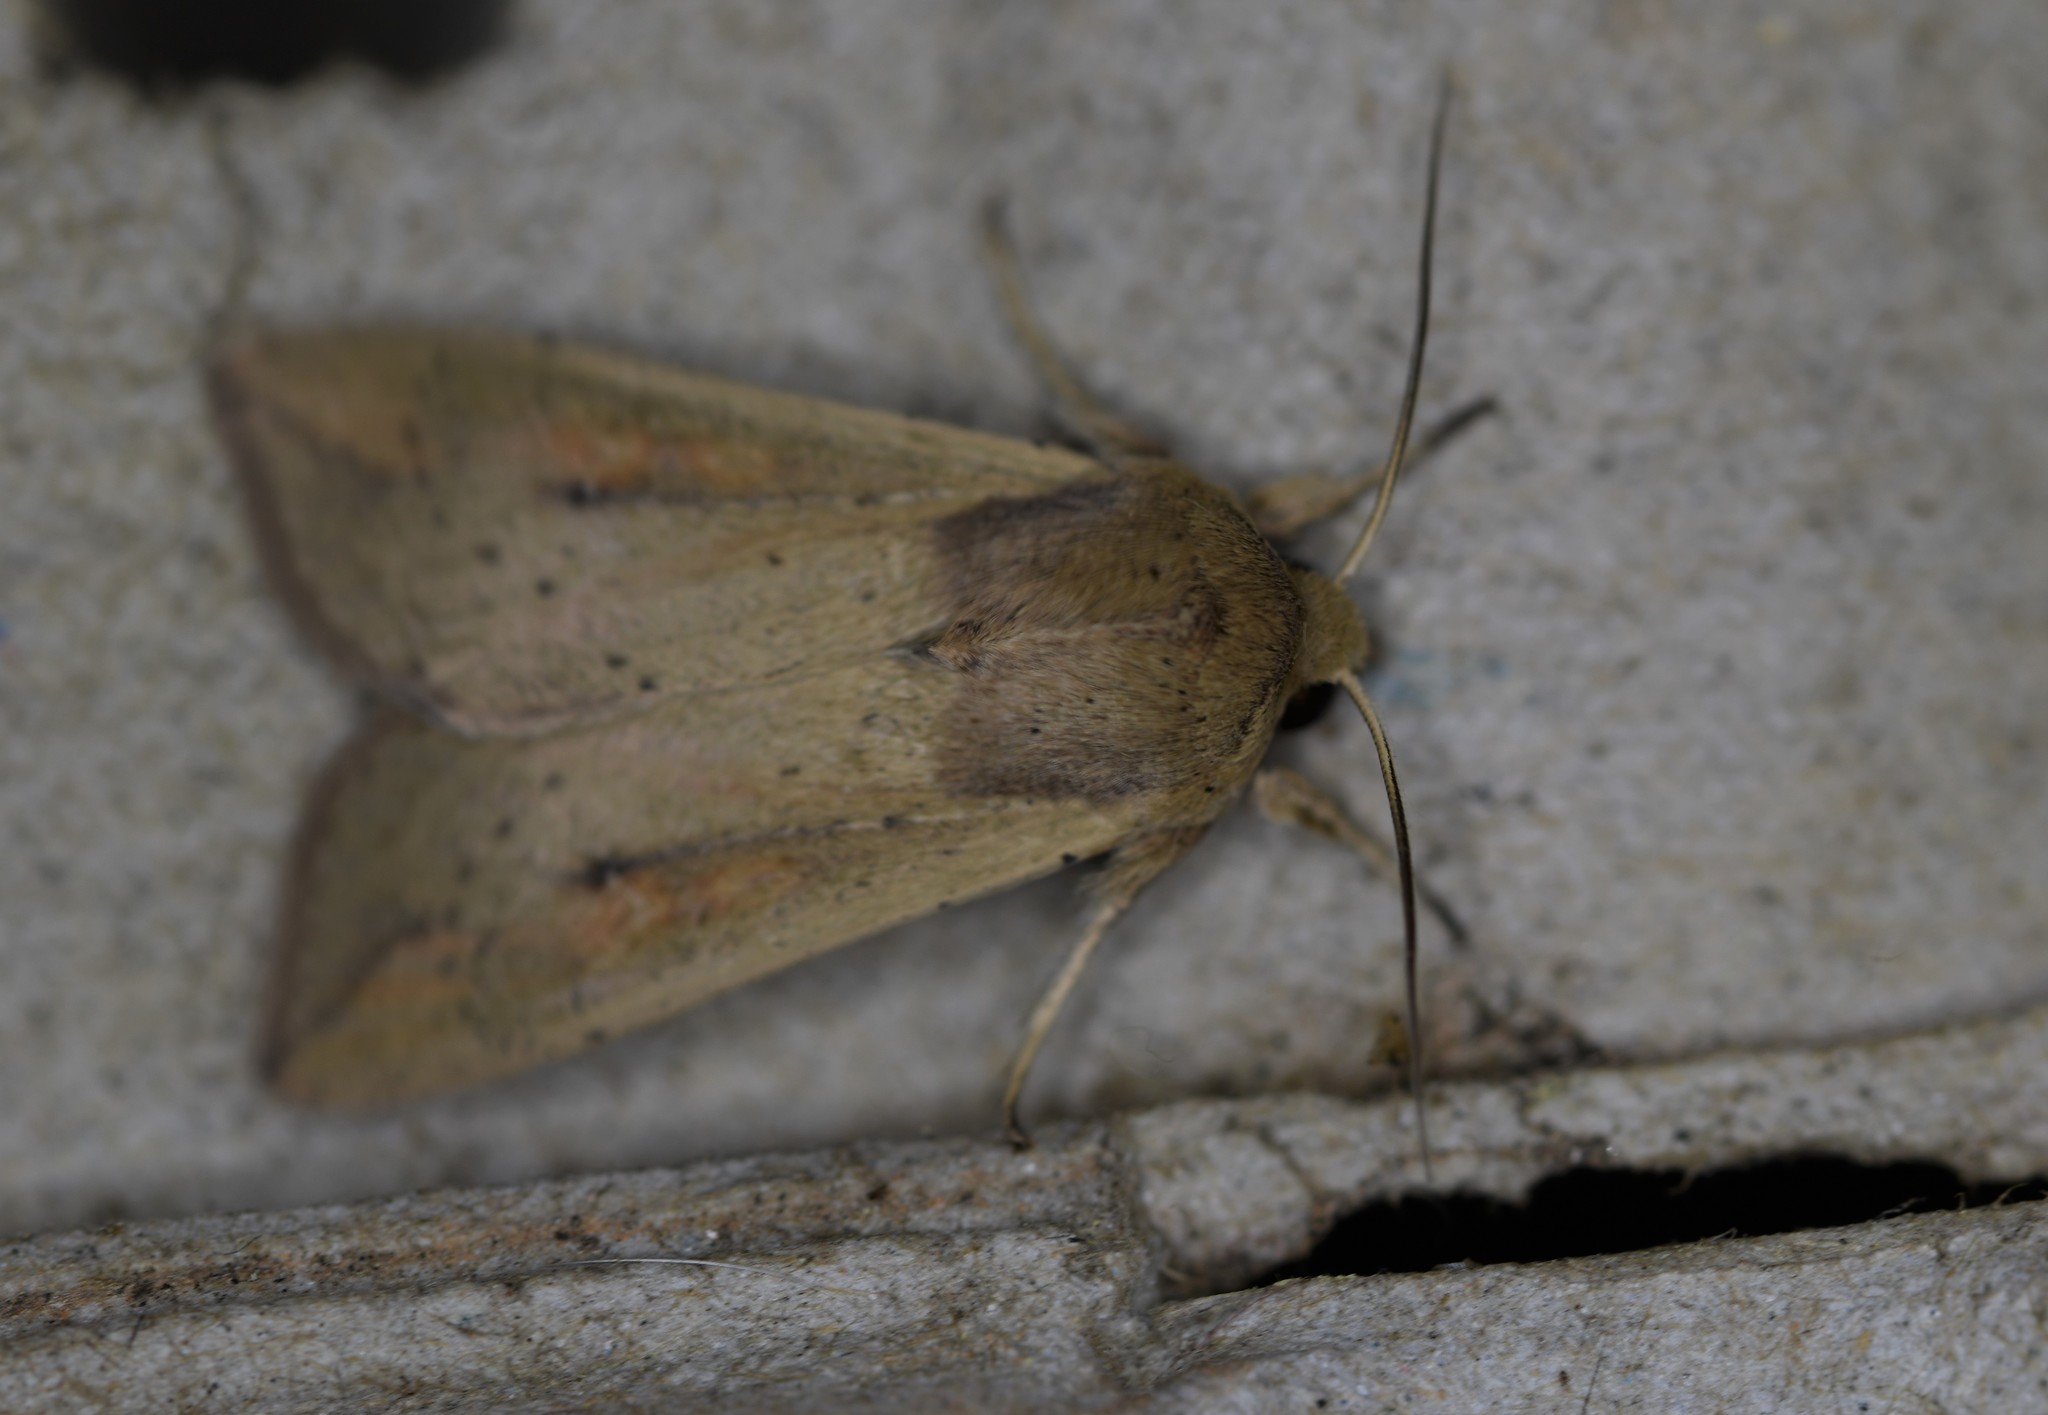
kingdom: Animalia
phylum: Arthropoda
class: Insecta
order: Lepidoptera
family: Noctuidae
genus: Mythimna
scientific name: Mythimna unipuncta
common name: White-speck
